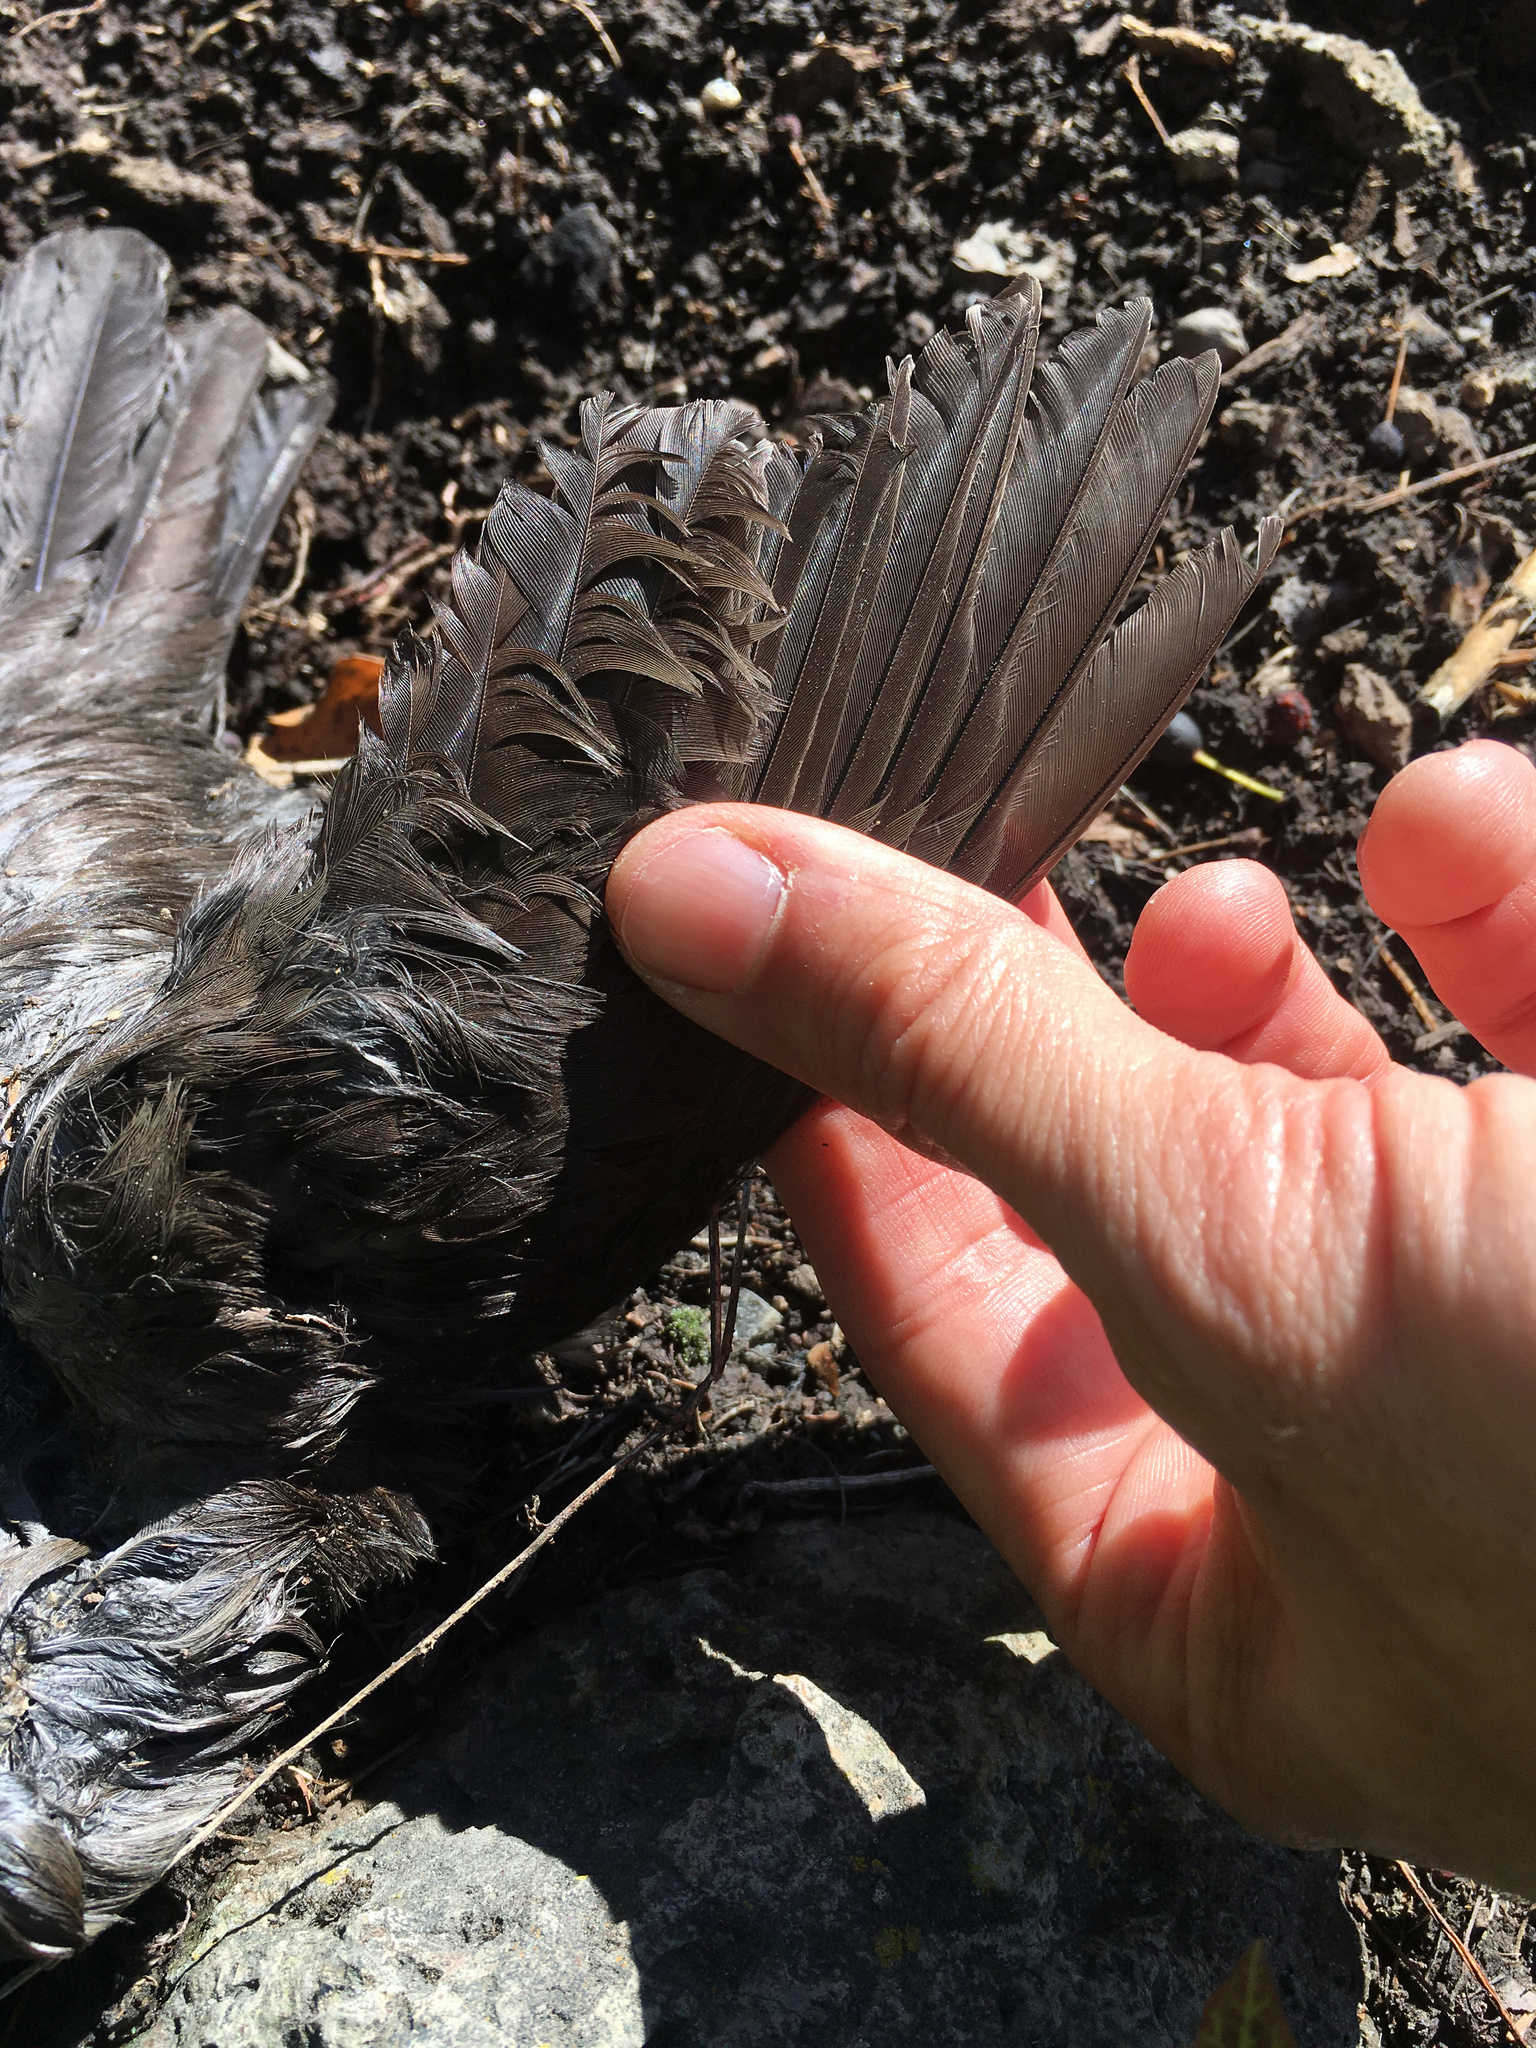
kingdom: Animalia
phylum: Chordata
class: Aves
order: Passeriformes
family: Turdidae
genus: Turdus
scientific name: Turdus merula
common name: Common blackbird
